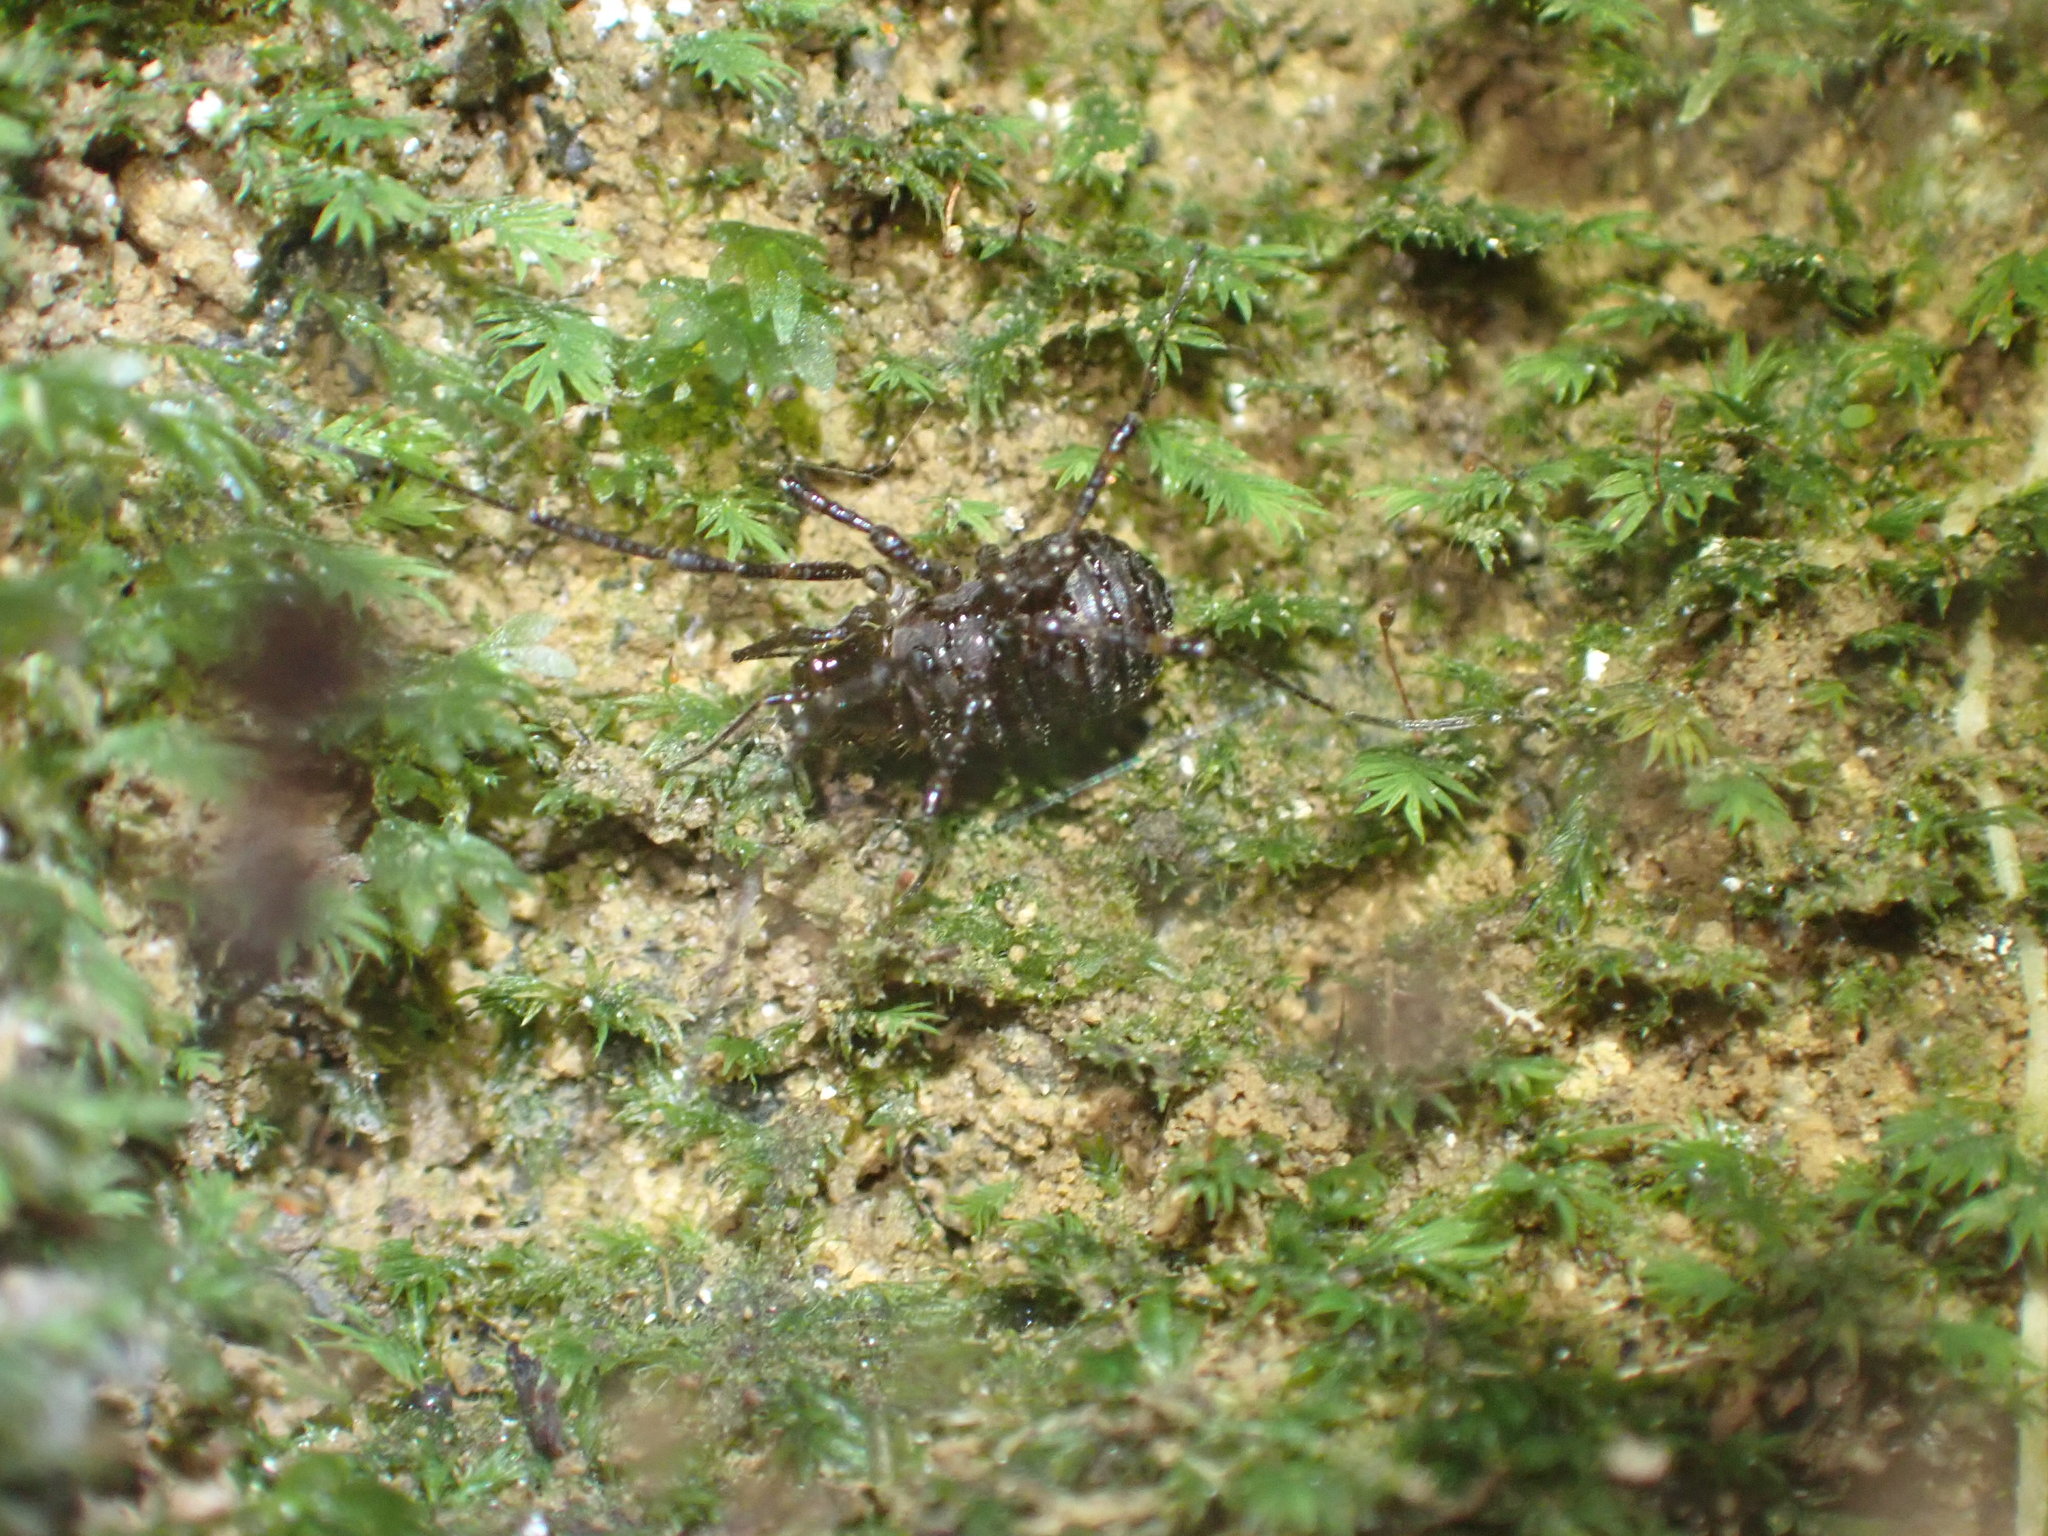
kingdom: Animalia
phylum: Arthropoda
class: Arachnida
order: Opiliones
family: Triaenonychidae
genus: Hendea
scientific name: Hendea myersi
